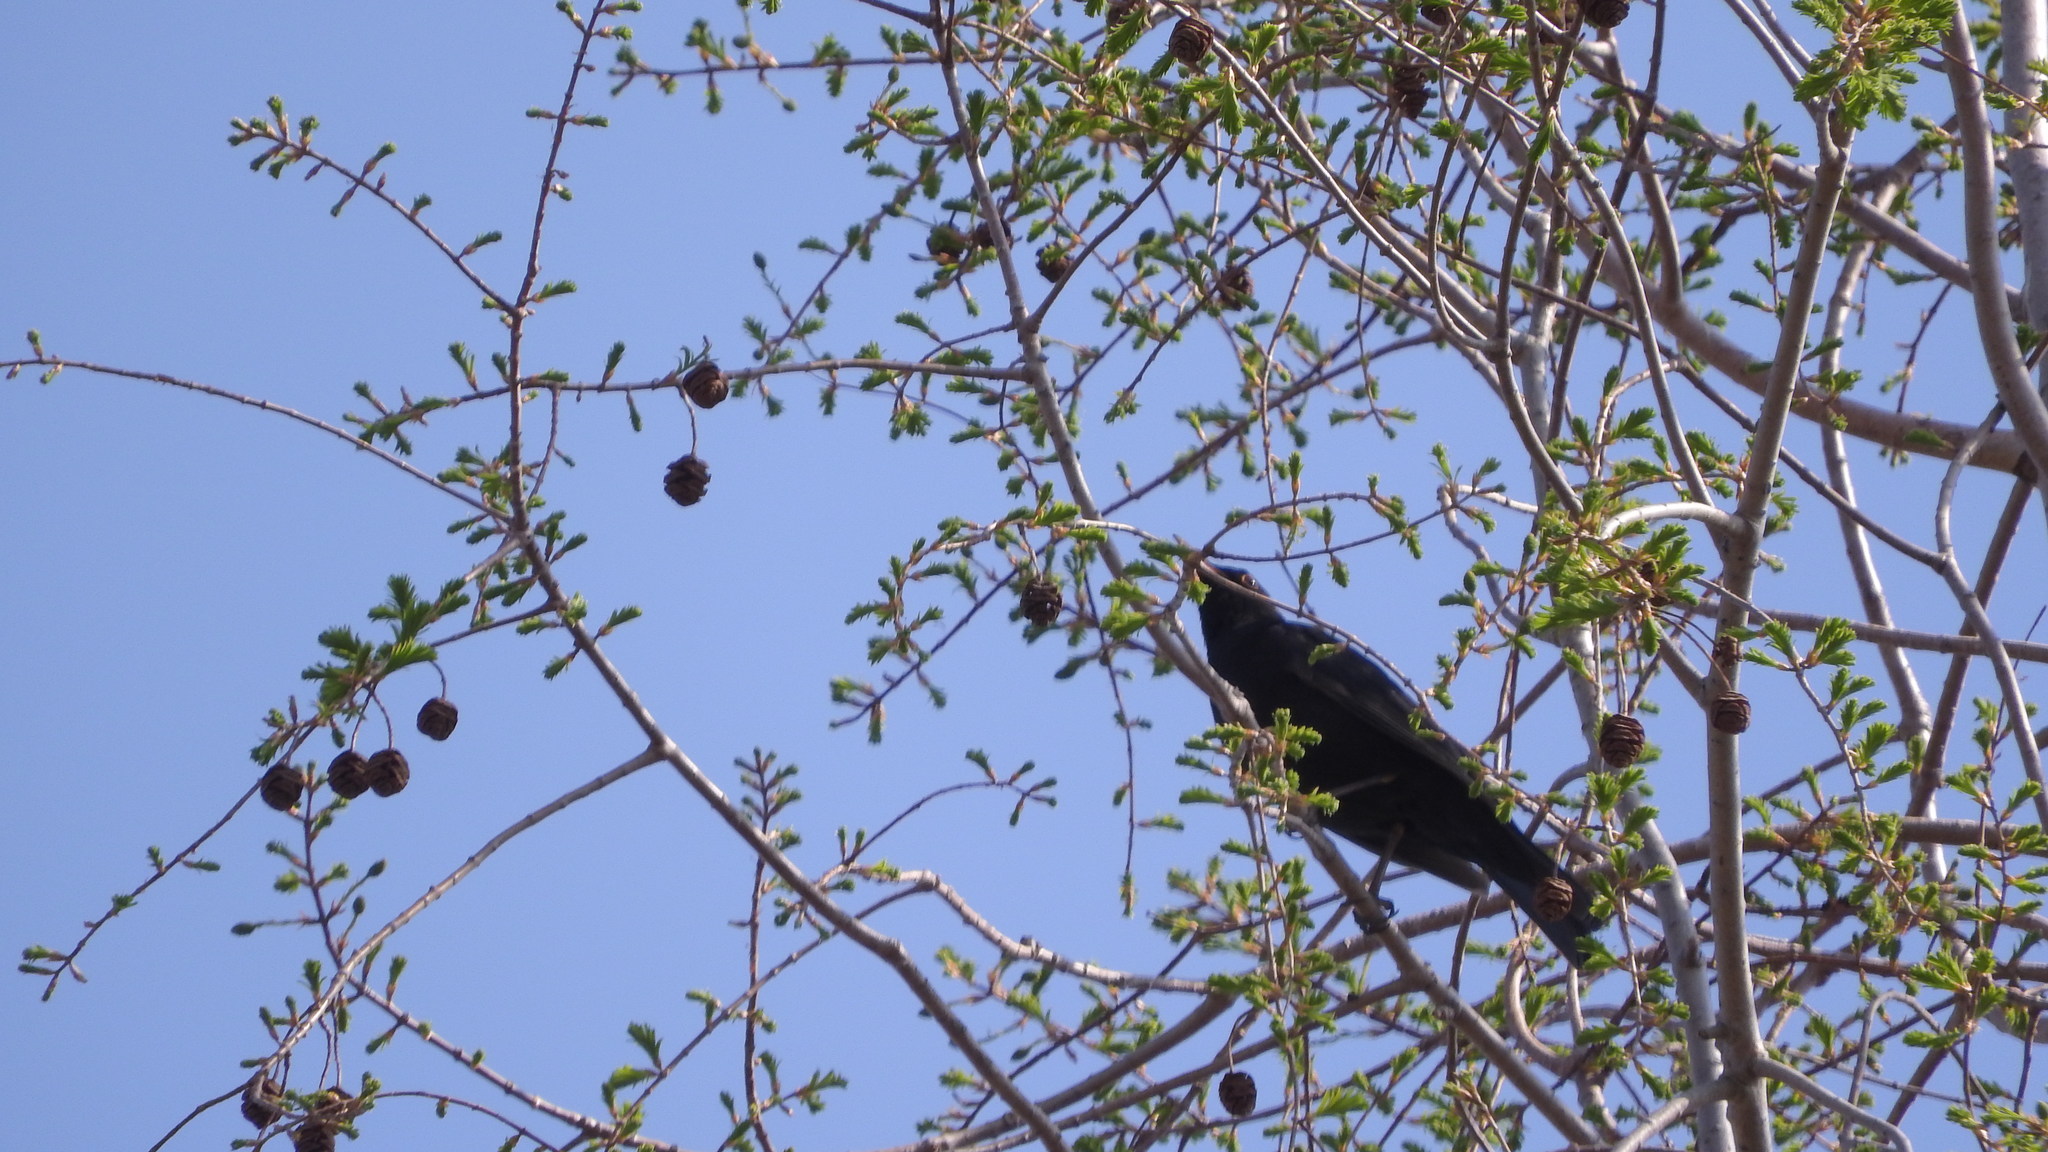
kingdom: Animalia
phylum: Chordata
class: Aves
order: Passeriformes
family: Turdidae
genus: Turdus
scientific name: Turdus merula
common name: Common blackbird
